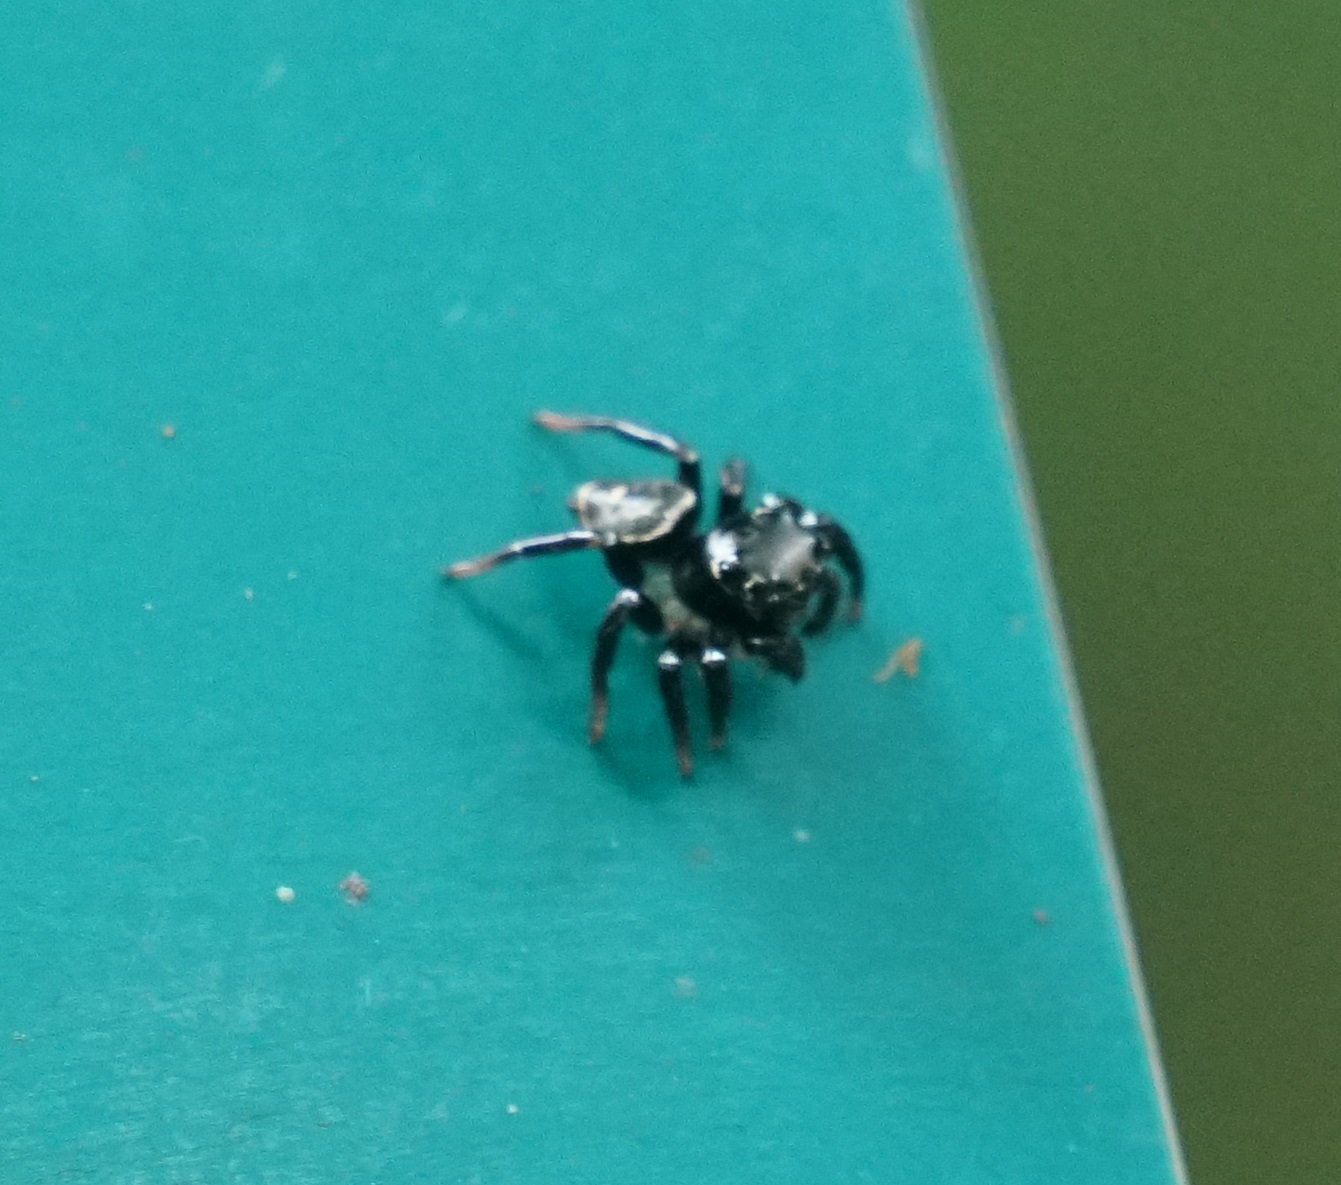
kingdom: Animalia
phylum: Arthropoda
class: Arachnida
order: Araneae
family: Salticidae
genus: Zenodorus
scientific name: Zenodorus orbiculatus
